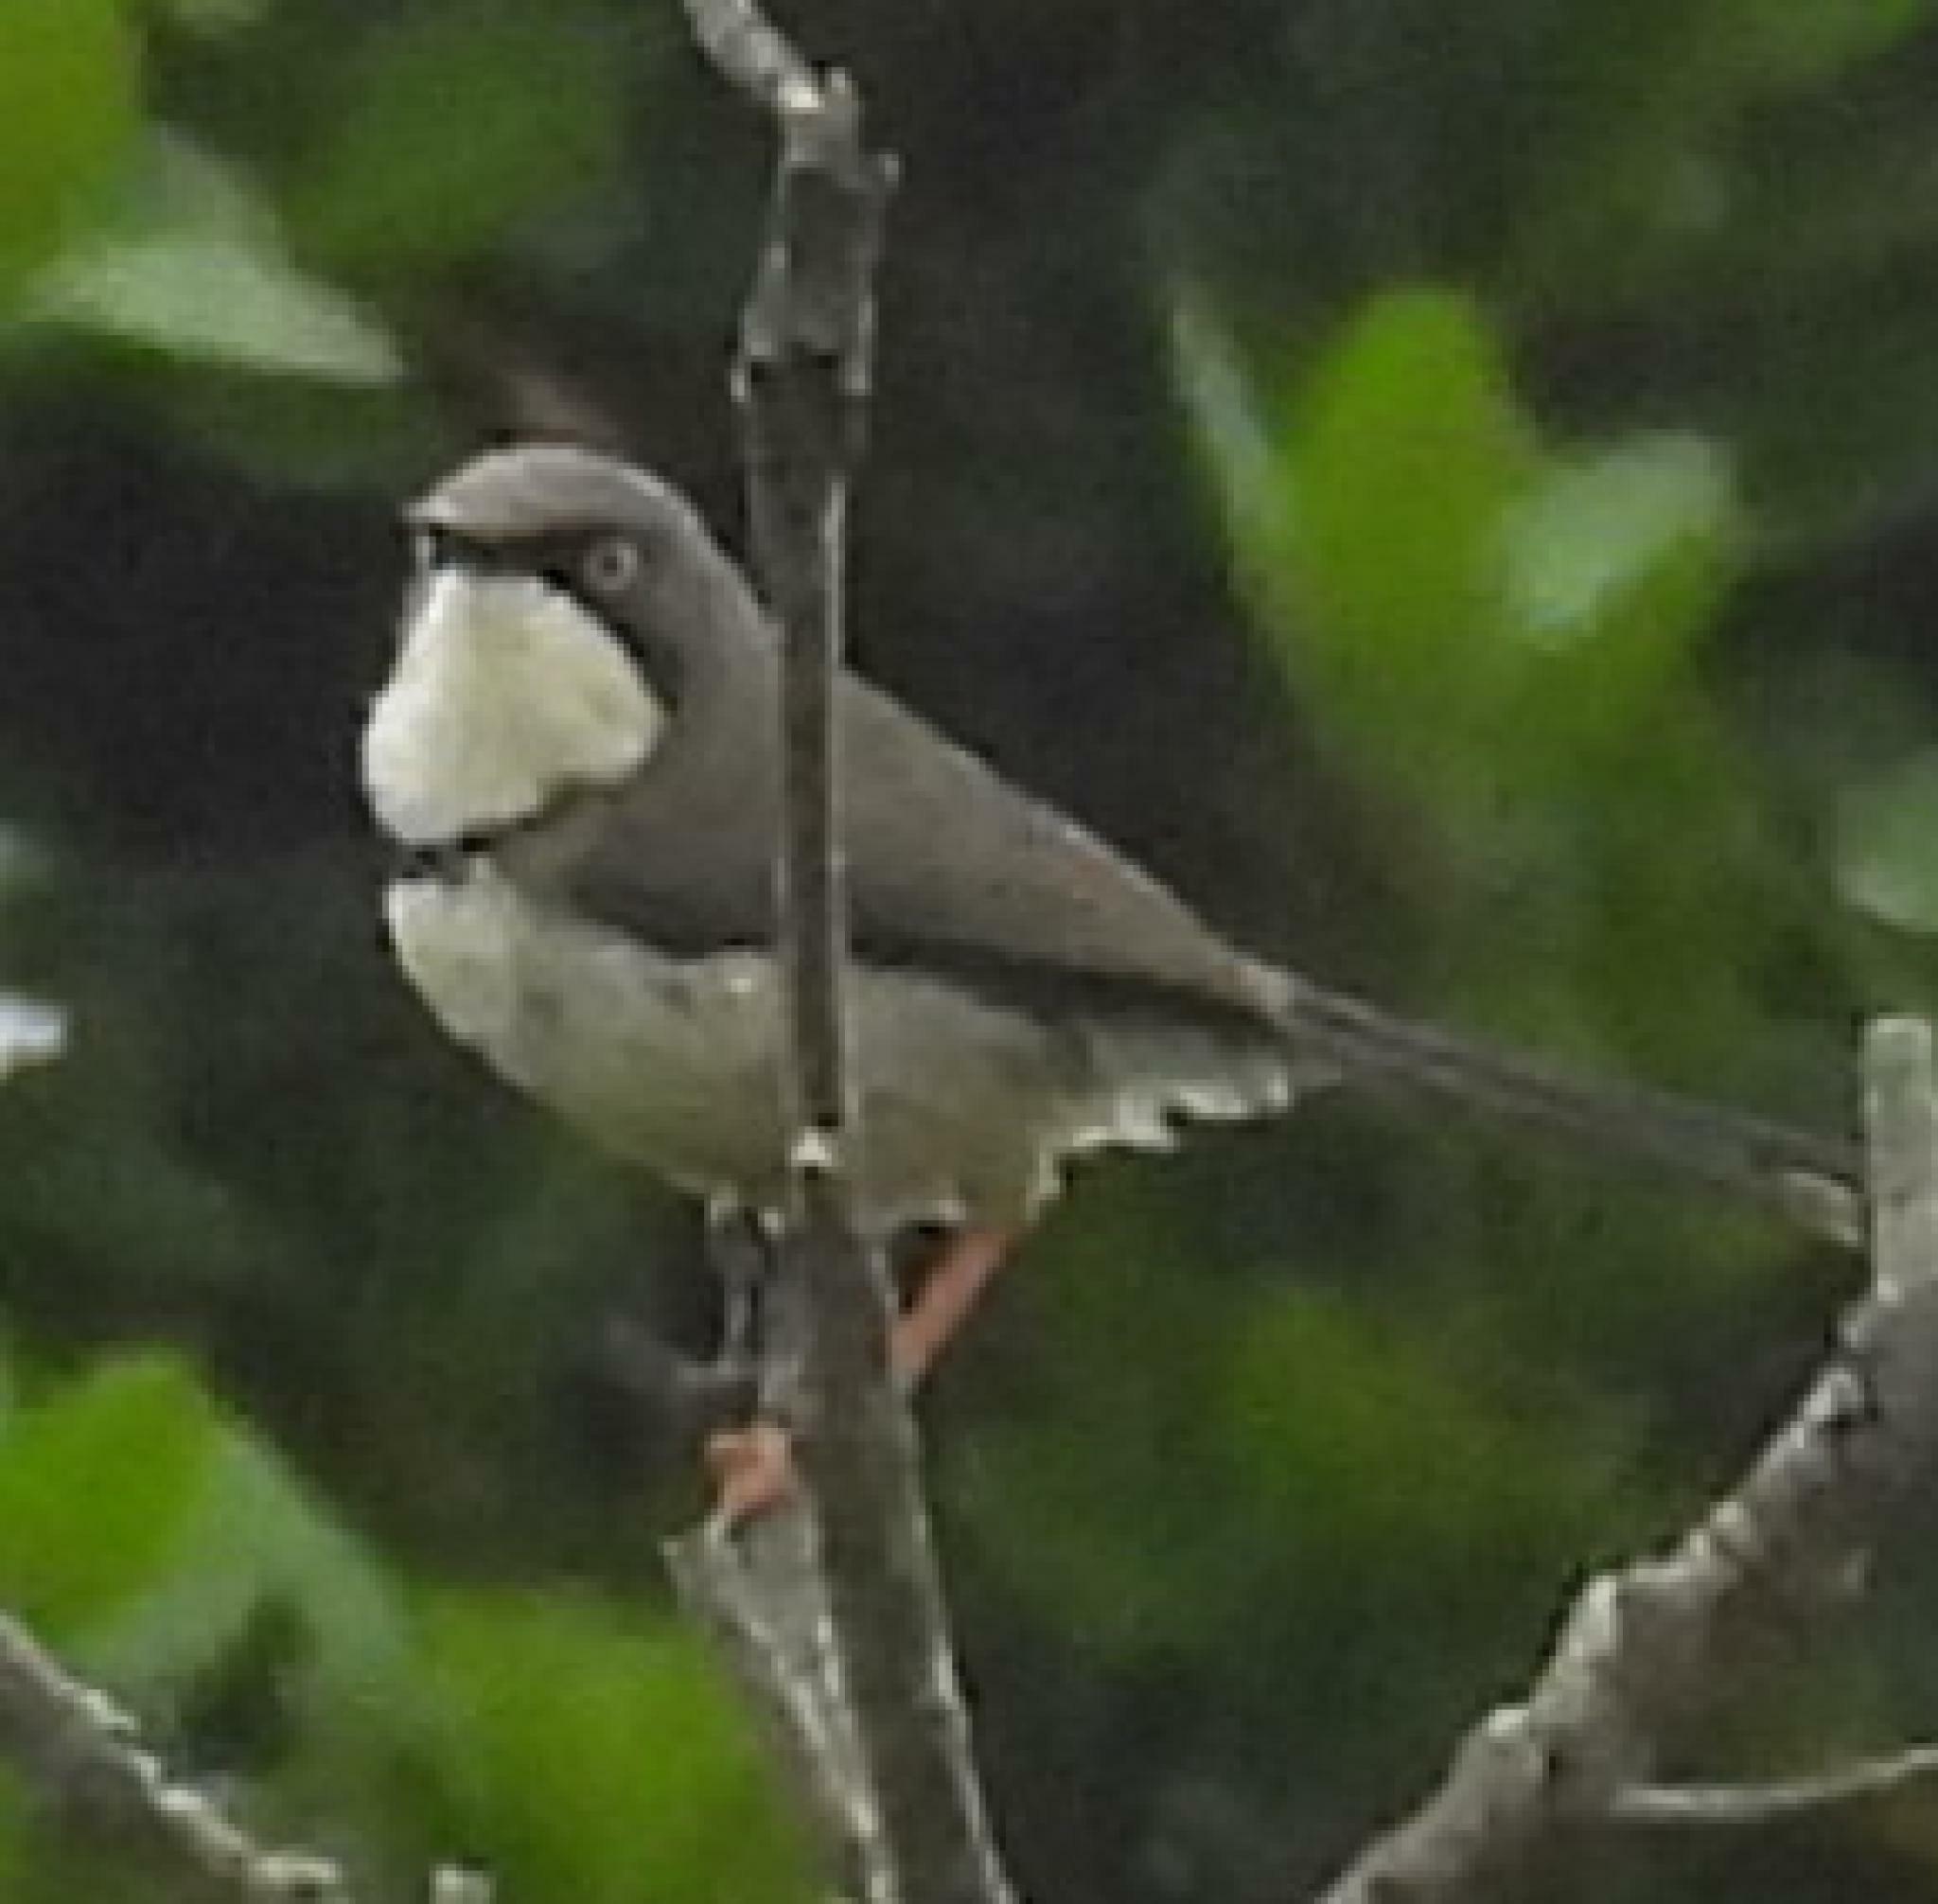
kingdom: Animalia
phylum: Chordata
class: Aves
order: Passeriformes
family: Cisticolidae
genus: Apalis
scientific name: Apalis thoracica
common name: Bar-throated apalis
